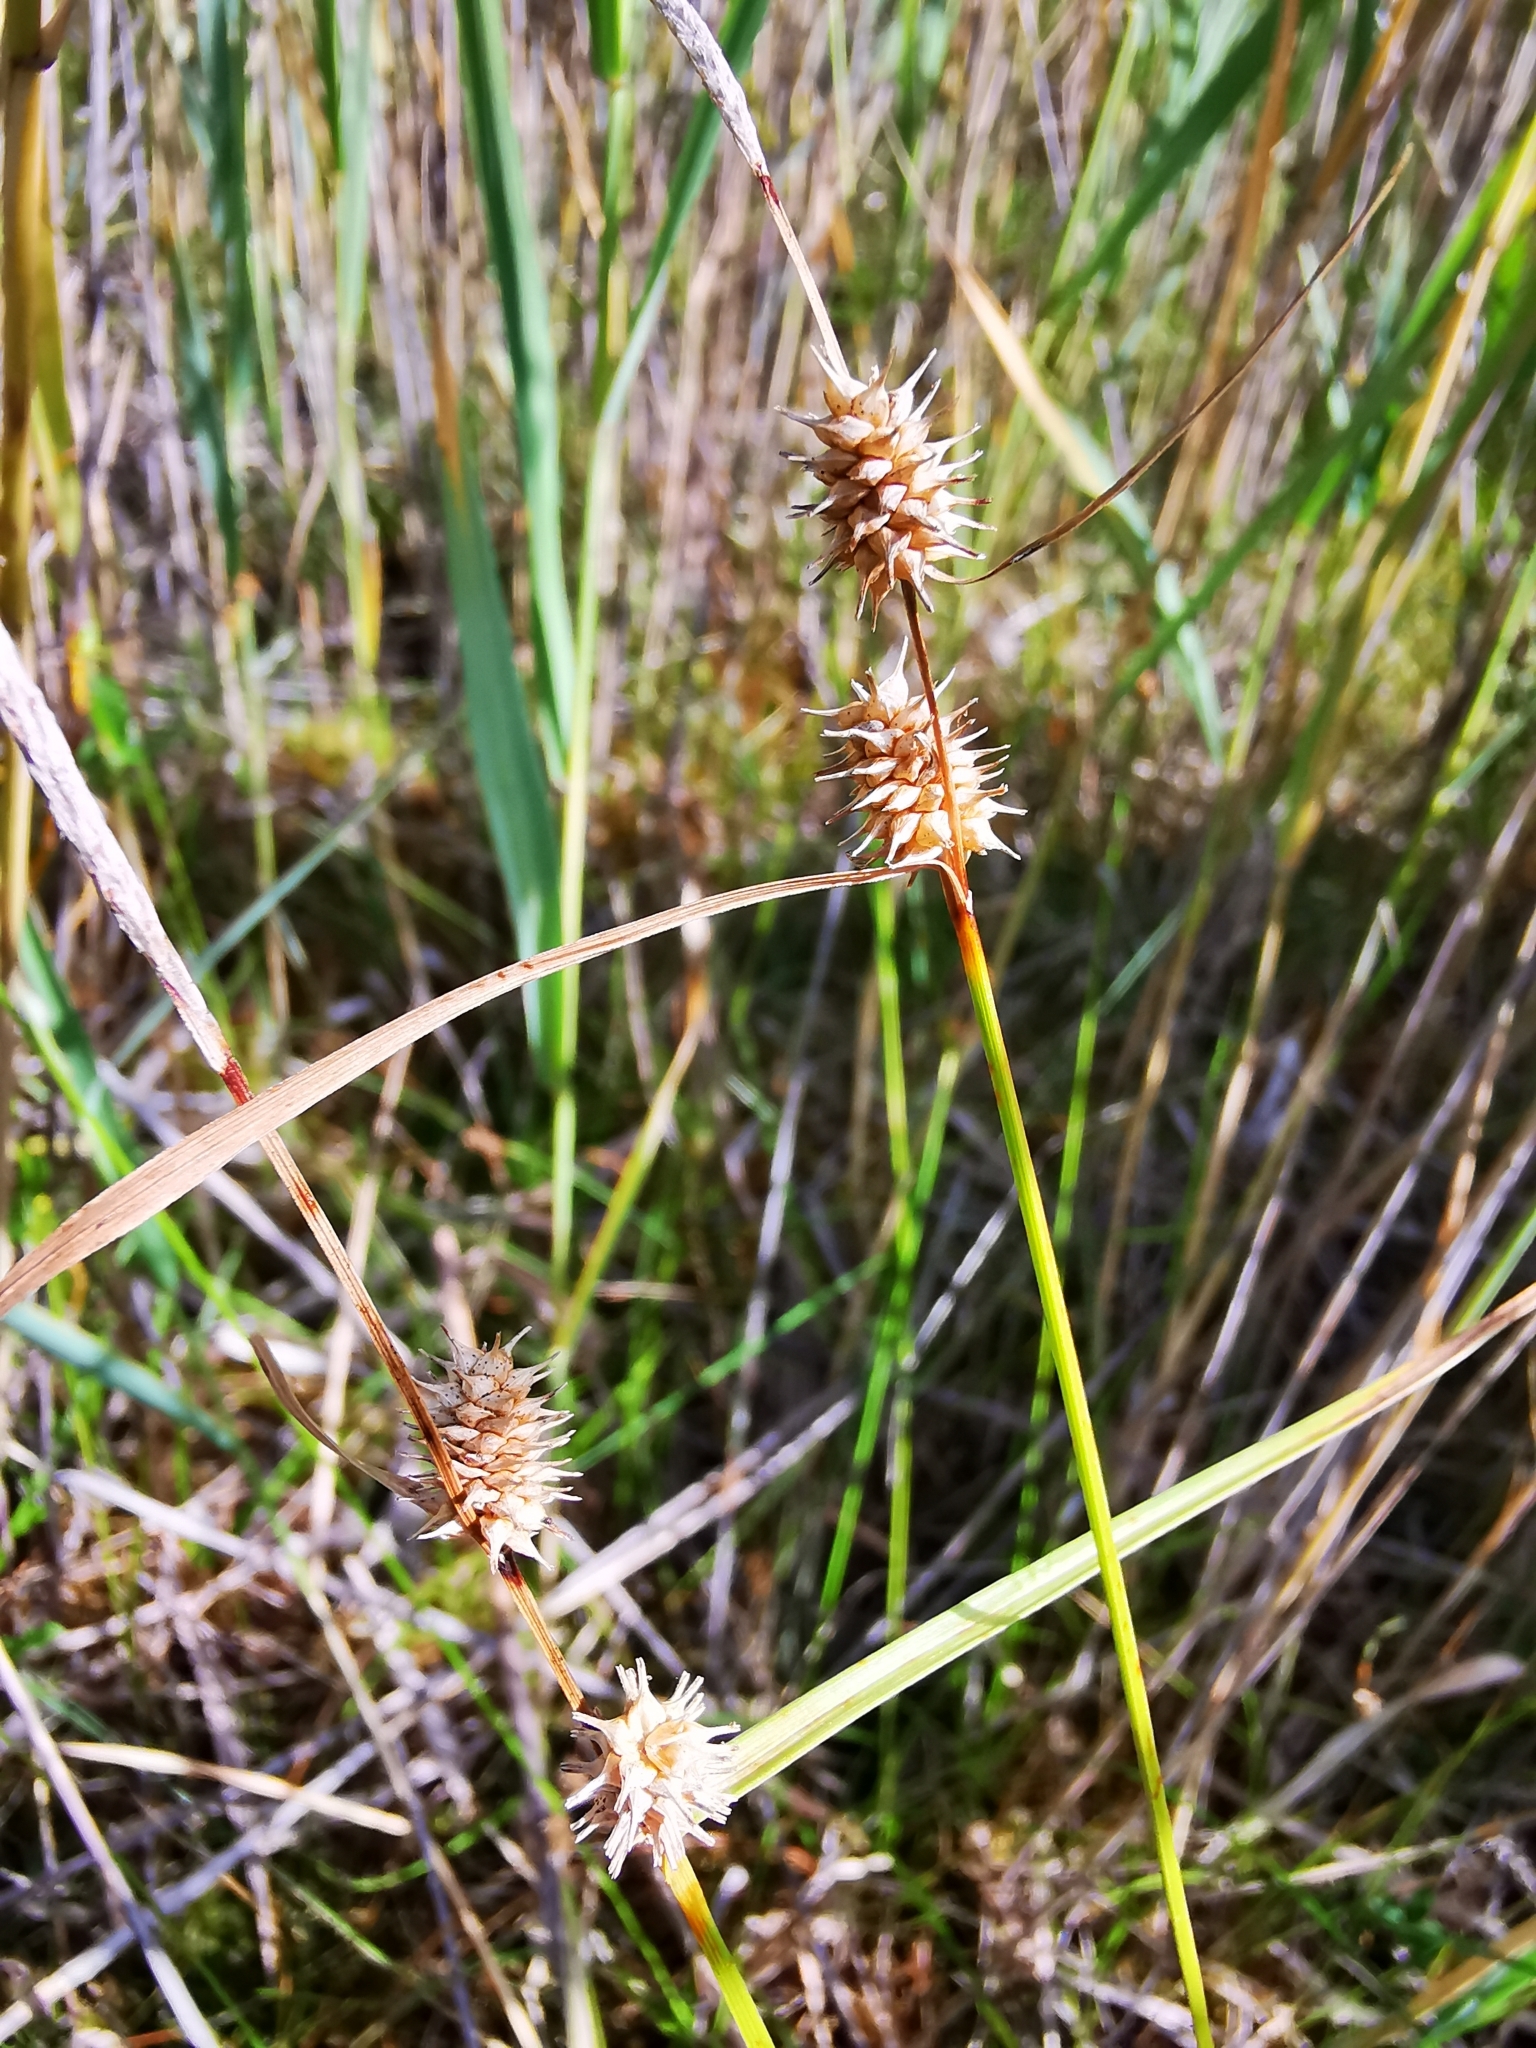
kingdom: Plantae
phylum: Tracheophyta
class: Liliopsida
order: Poales
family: Cyperaceae
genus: Carex
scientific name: Carex lepidocarpa
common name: Long-stalked yellow-sedge
